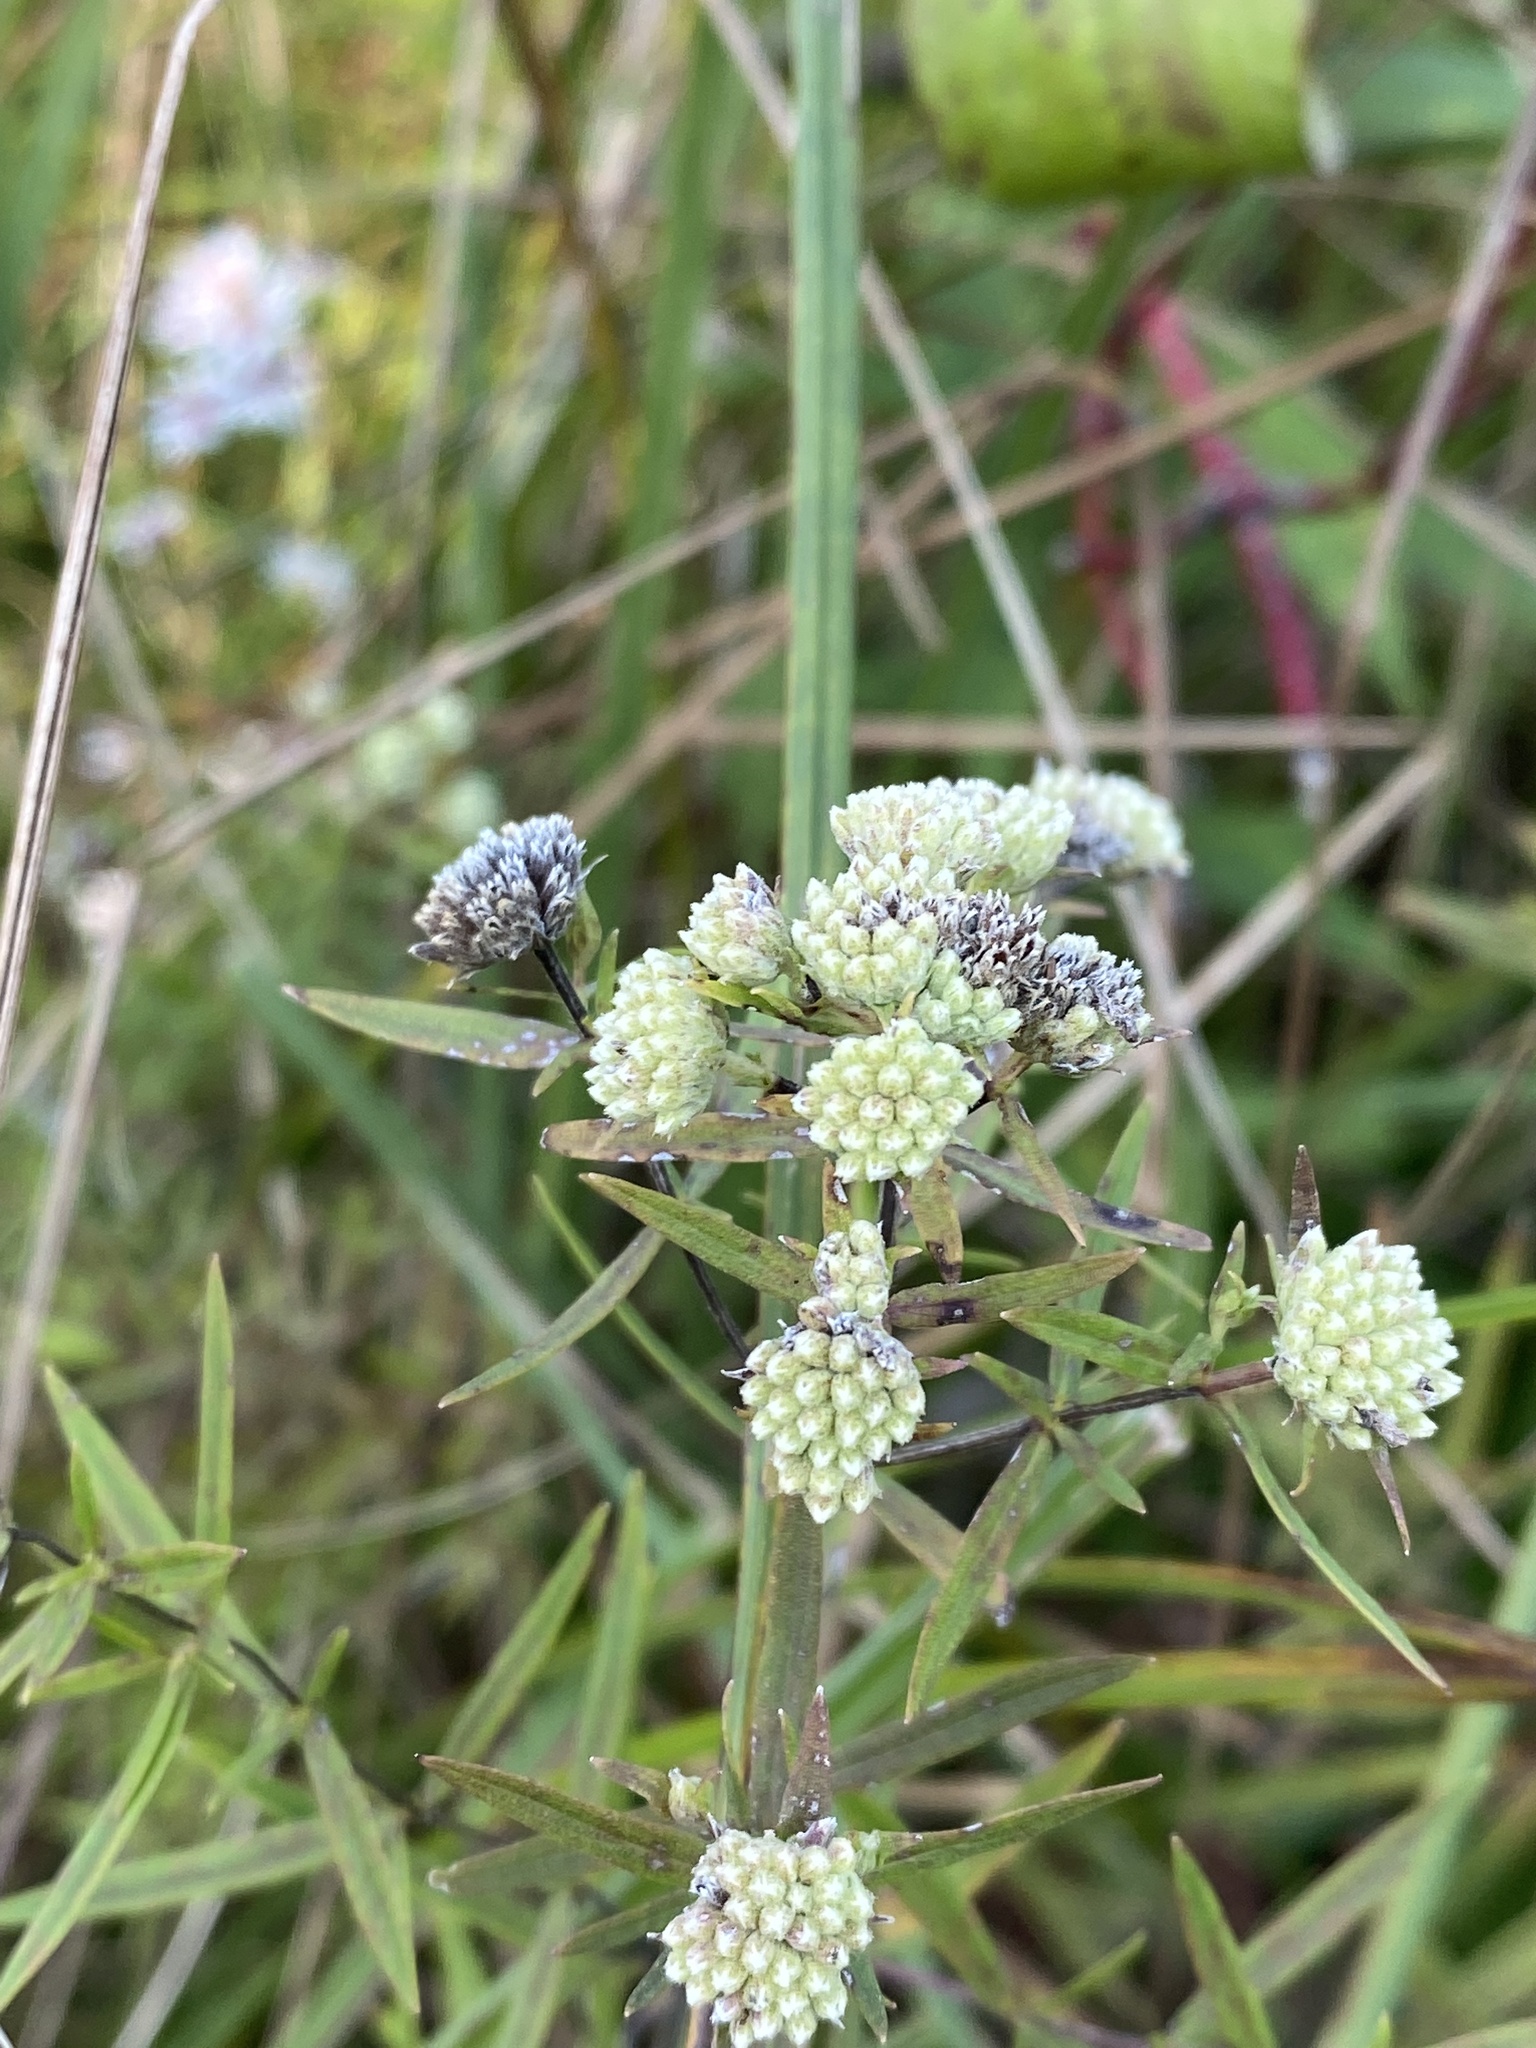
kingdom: Plantae
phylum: Tracheophyta
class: Magnoliopsida
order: Lamiales
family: Lamiaceae
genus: Pycnanthemum
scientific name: Pycnanthemum tenuifolium
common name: Narrow-leaf mountain-mint
